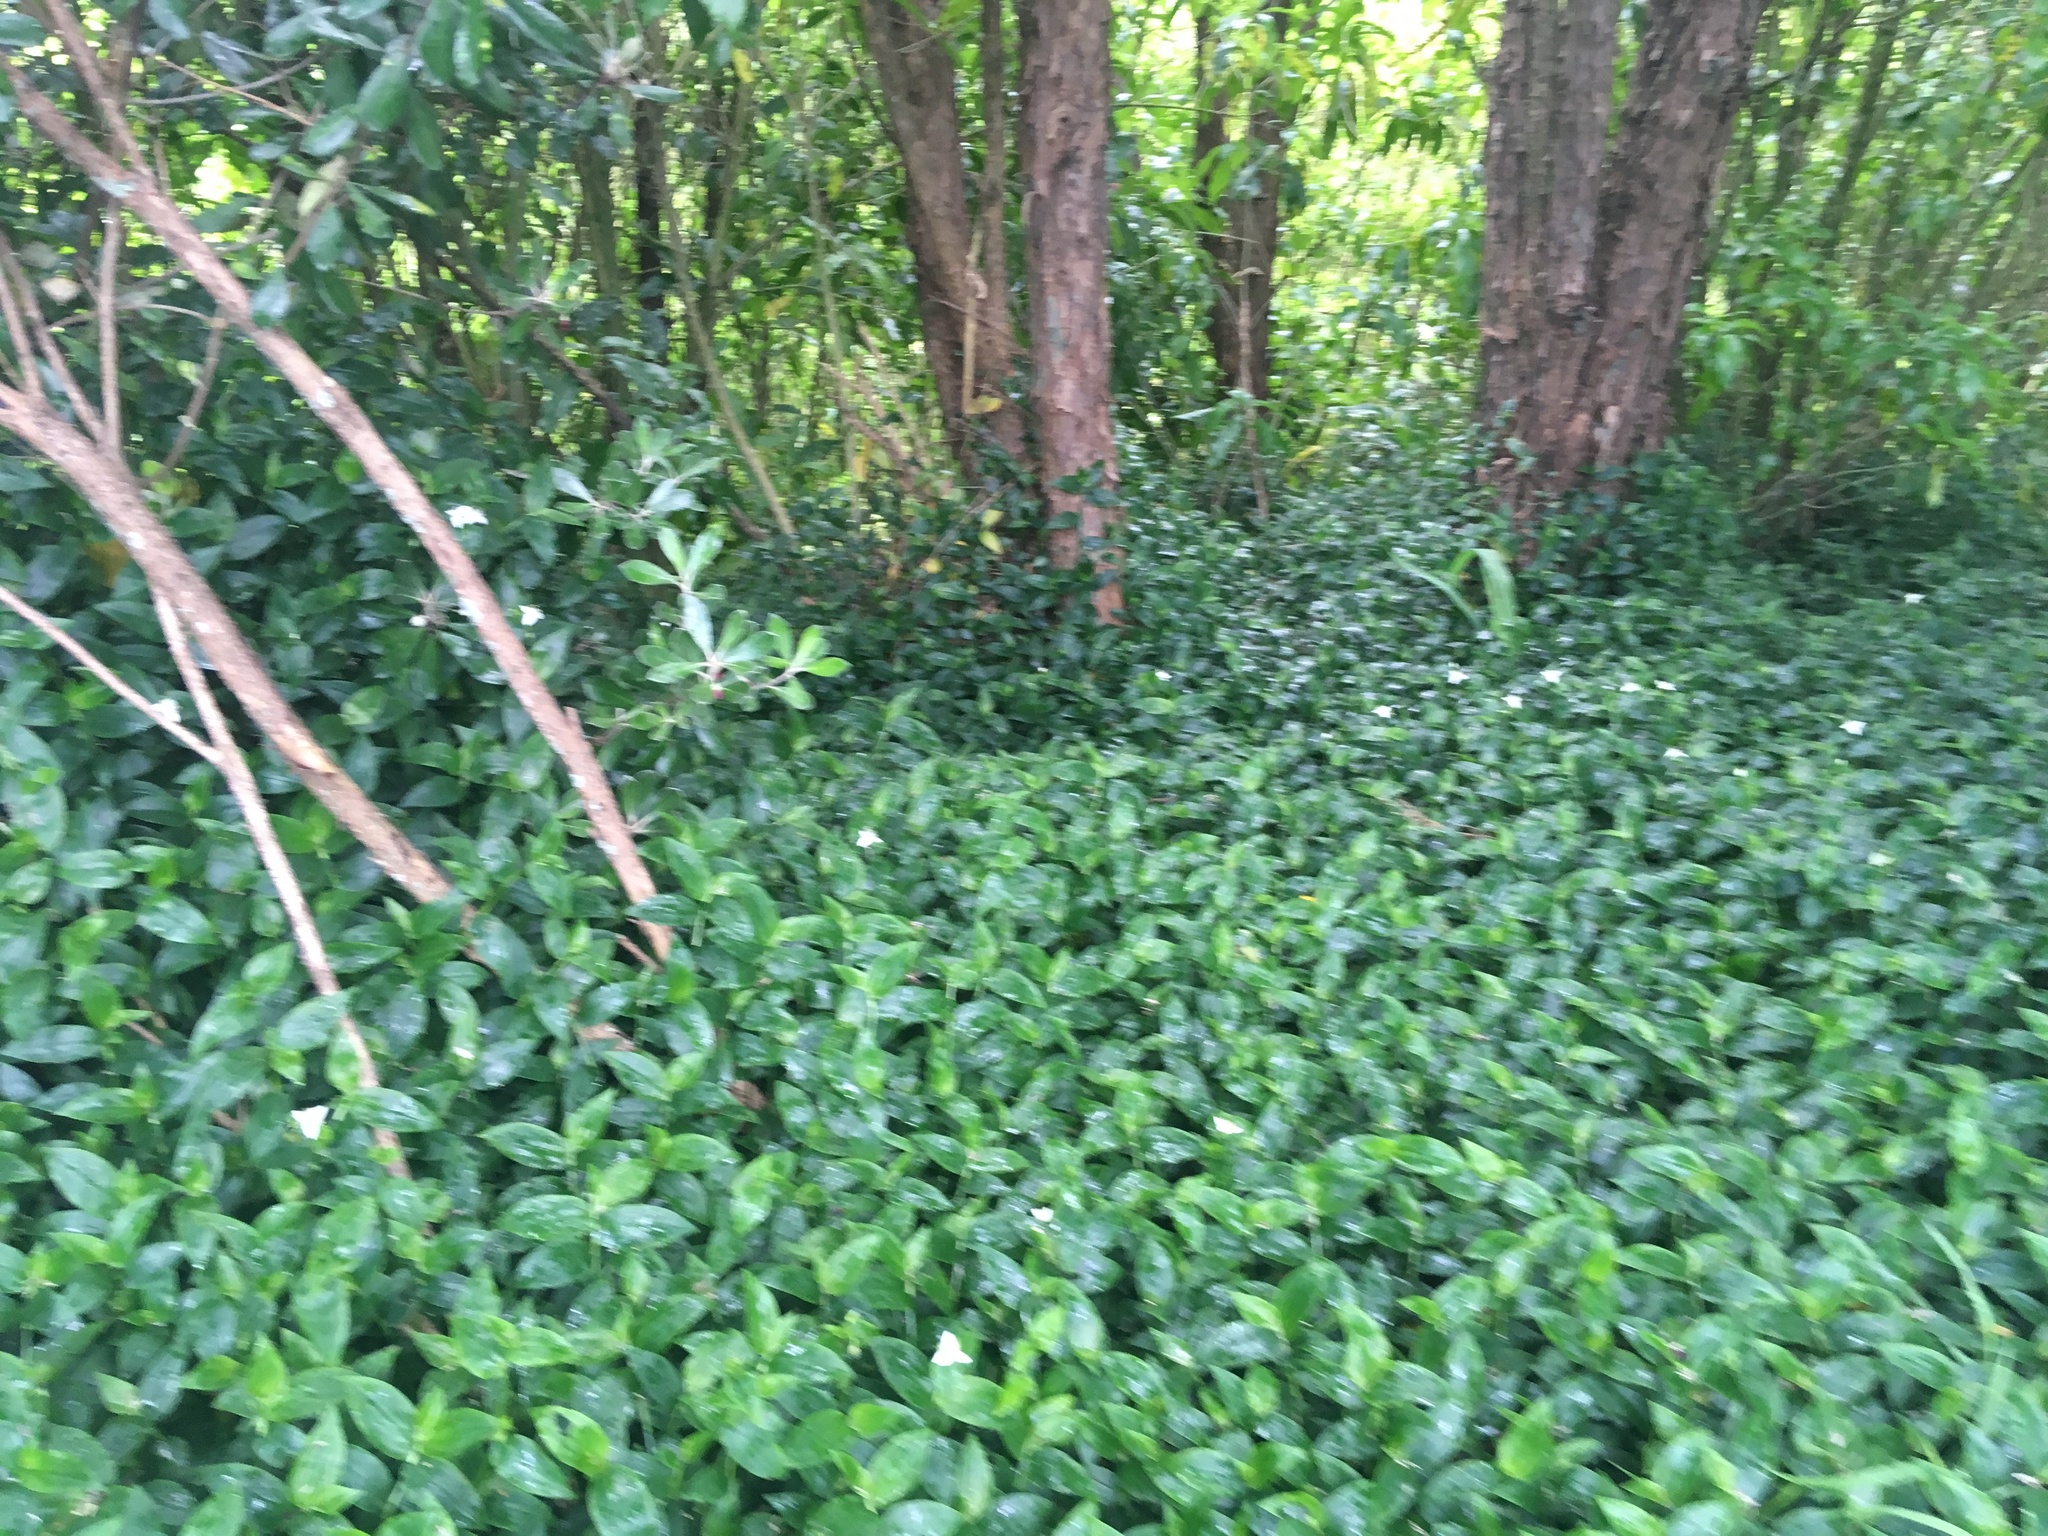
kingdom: Plantae
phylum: Tracheophyta
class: Liliopsida
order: Commelinales
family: Commelinaceae
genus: Tradescantia
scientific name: Tradescantia fluminensis
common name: Wandering-jew
